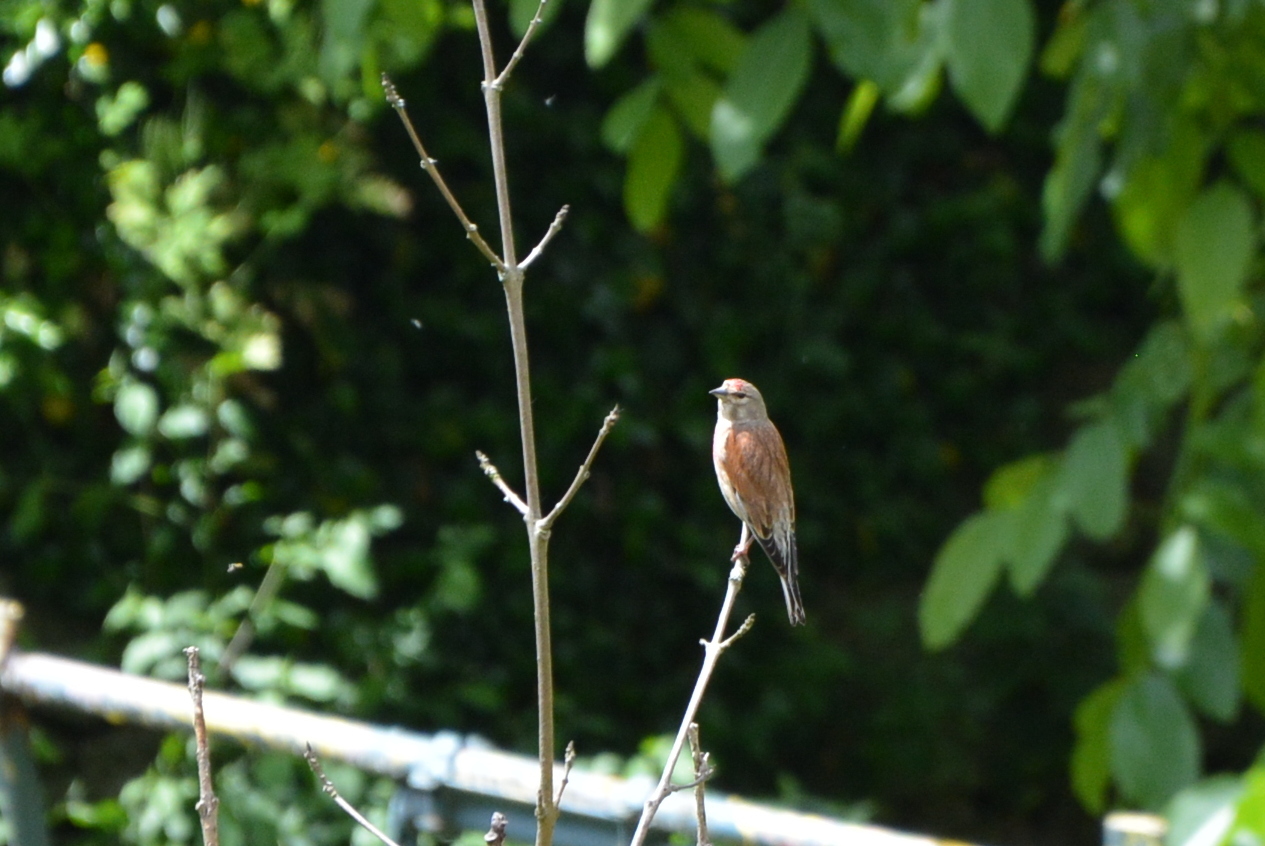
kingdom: Animalia
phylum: Chordata
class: Aves
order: Passeriformes
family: Fringillidae
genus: Linaria
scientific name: Linaria cannabina
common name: Common linnet
